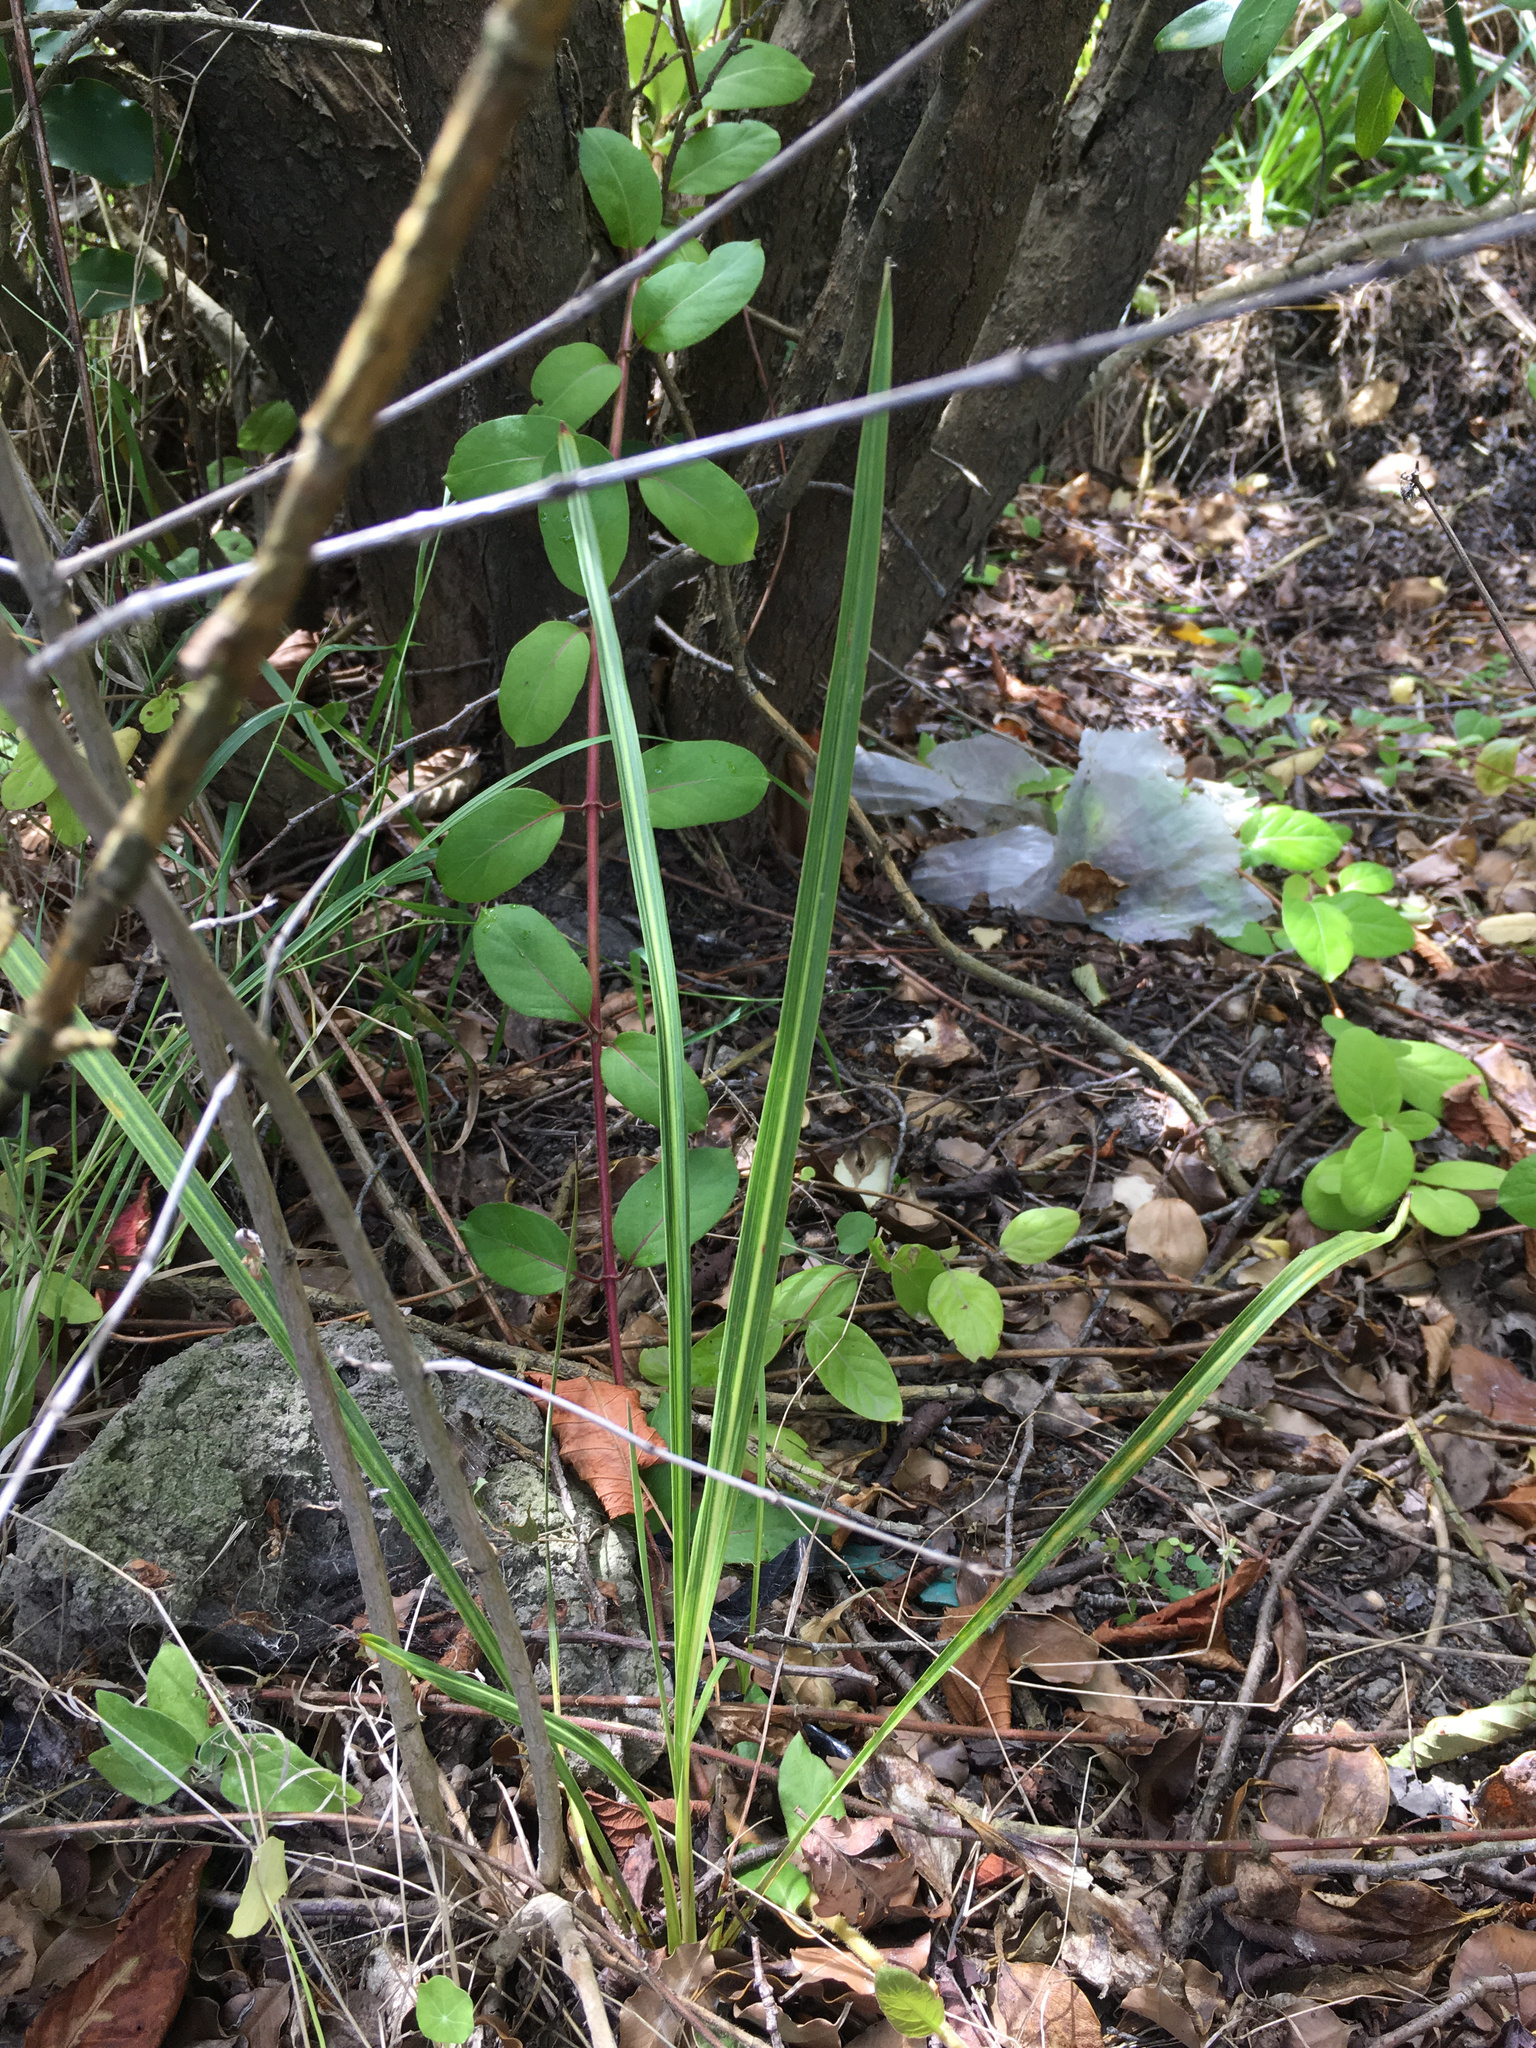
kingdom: Plantae
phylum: Tracheophyta
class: Magnoliopsida
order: Dipsacales
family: Caprifoliaceae
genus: Lonicera
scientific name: Lonicera japonica
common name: Japanese honeysuckle
